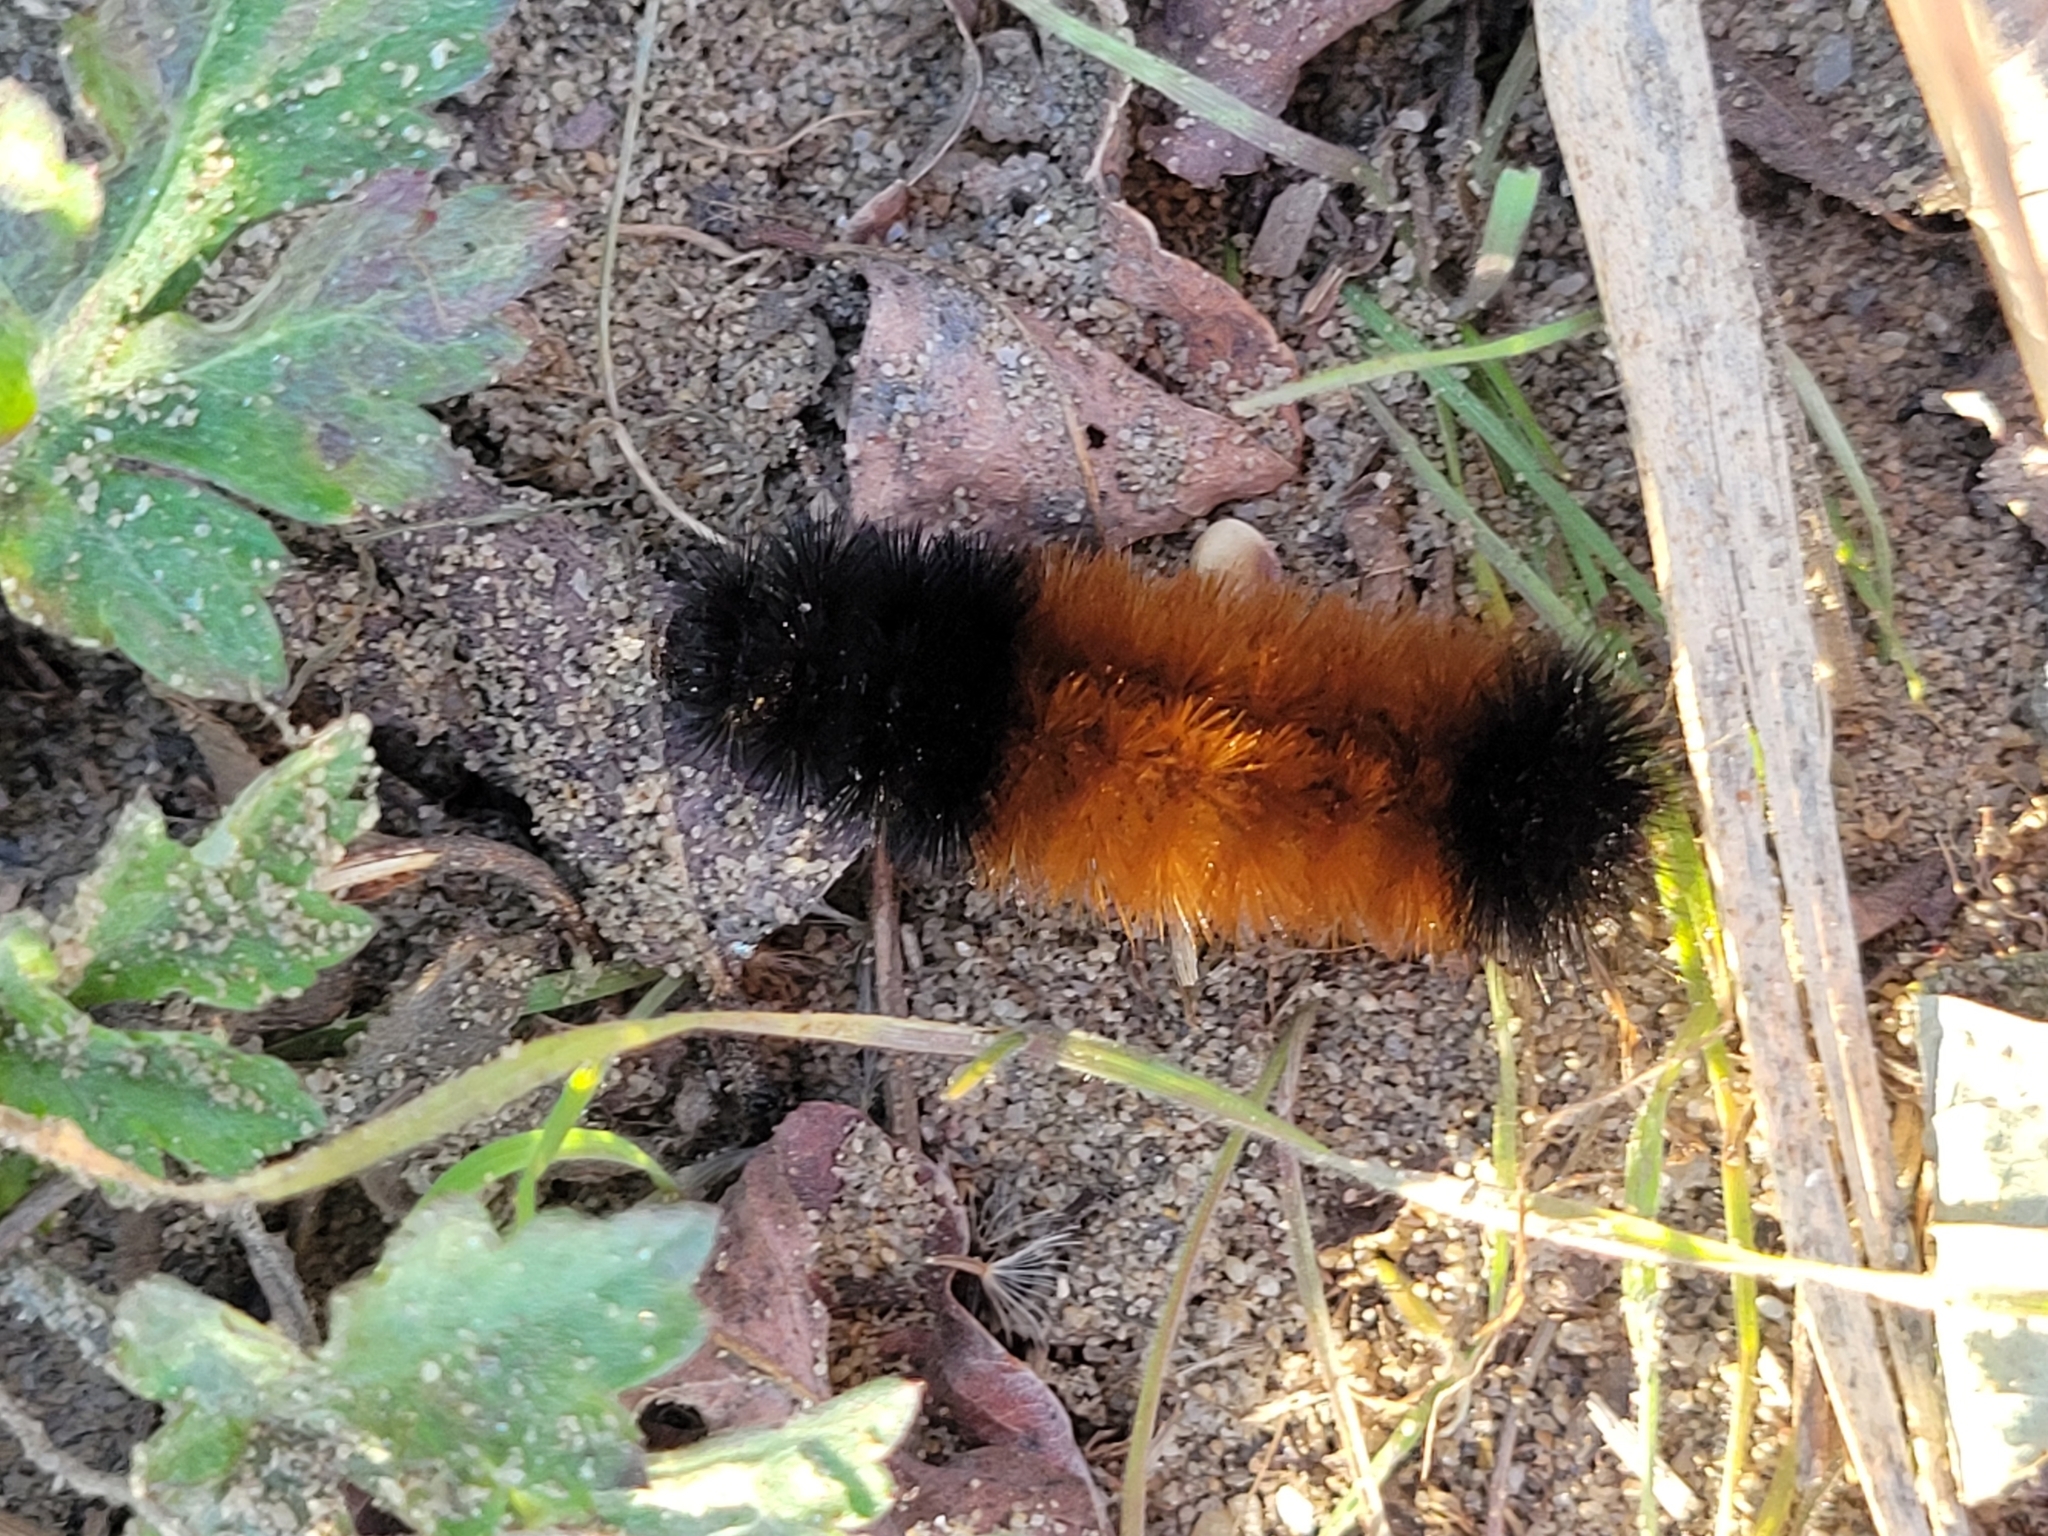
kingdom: Animalia
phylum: Arthropoda
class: Insecta
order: Lepidoptera
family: Erebidae
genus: Pyrrharctia
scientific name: Pyrrharctia isabella
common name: Isabella tiger moth
